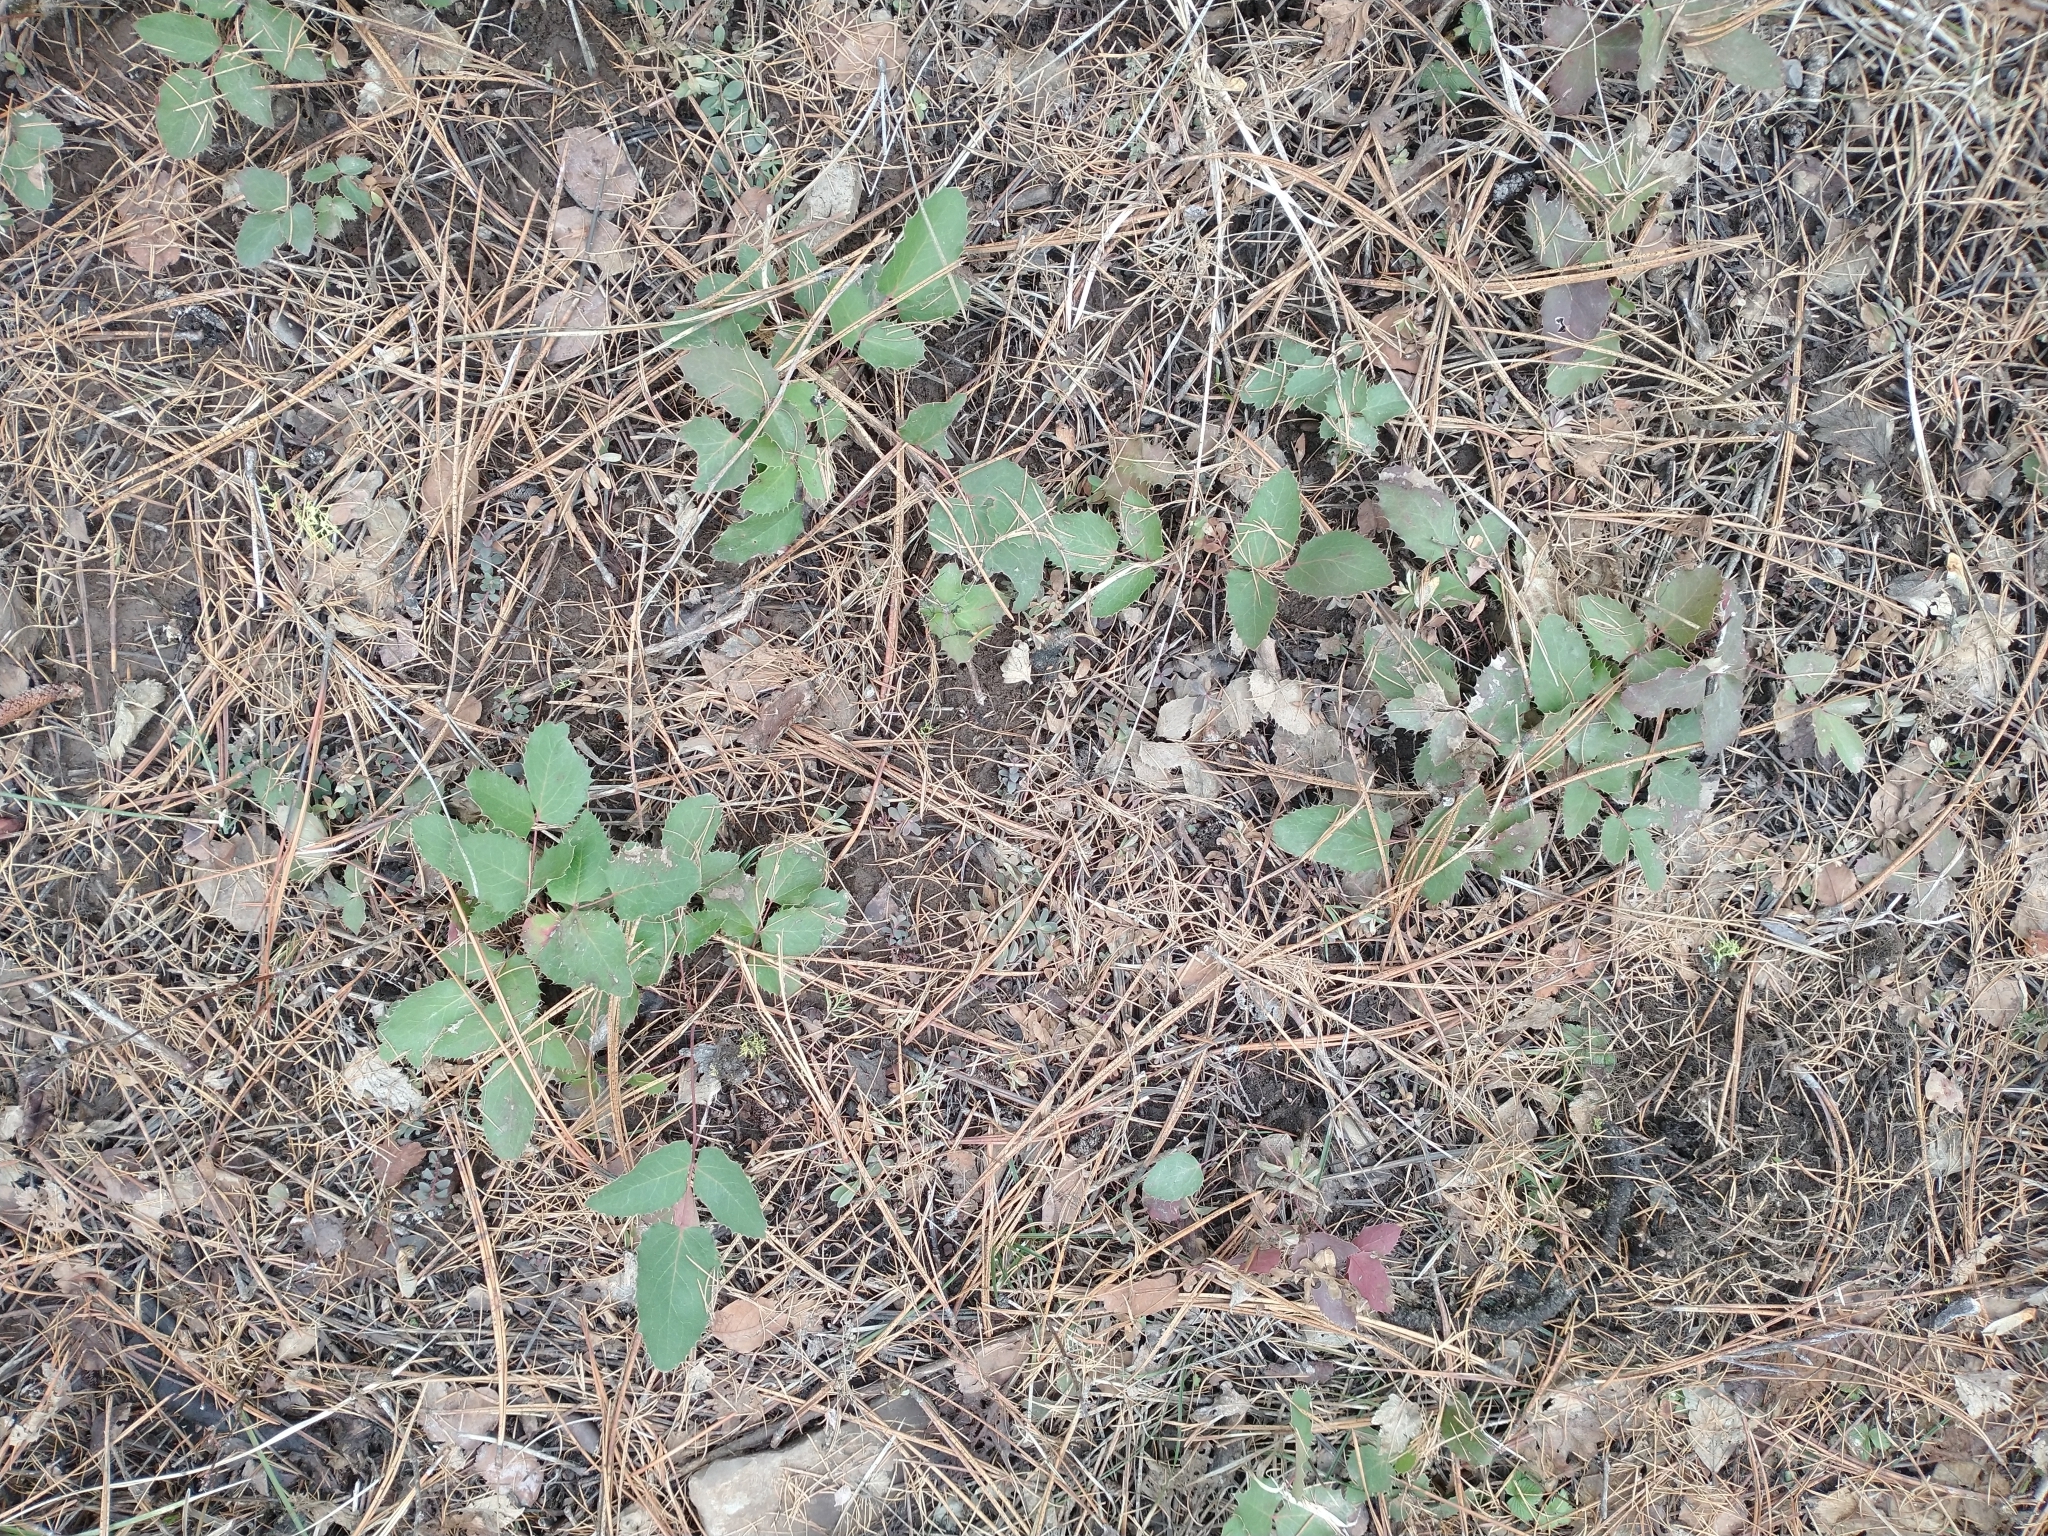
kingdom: Plantae
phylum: Tracheophyta
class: Magnoliopsida
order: Ranunculales
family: Berberidaceae
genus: Mahonia
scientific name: Mahonia repens
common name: Creeping oregon-grape
